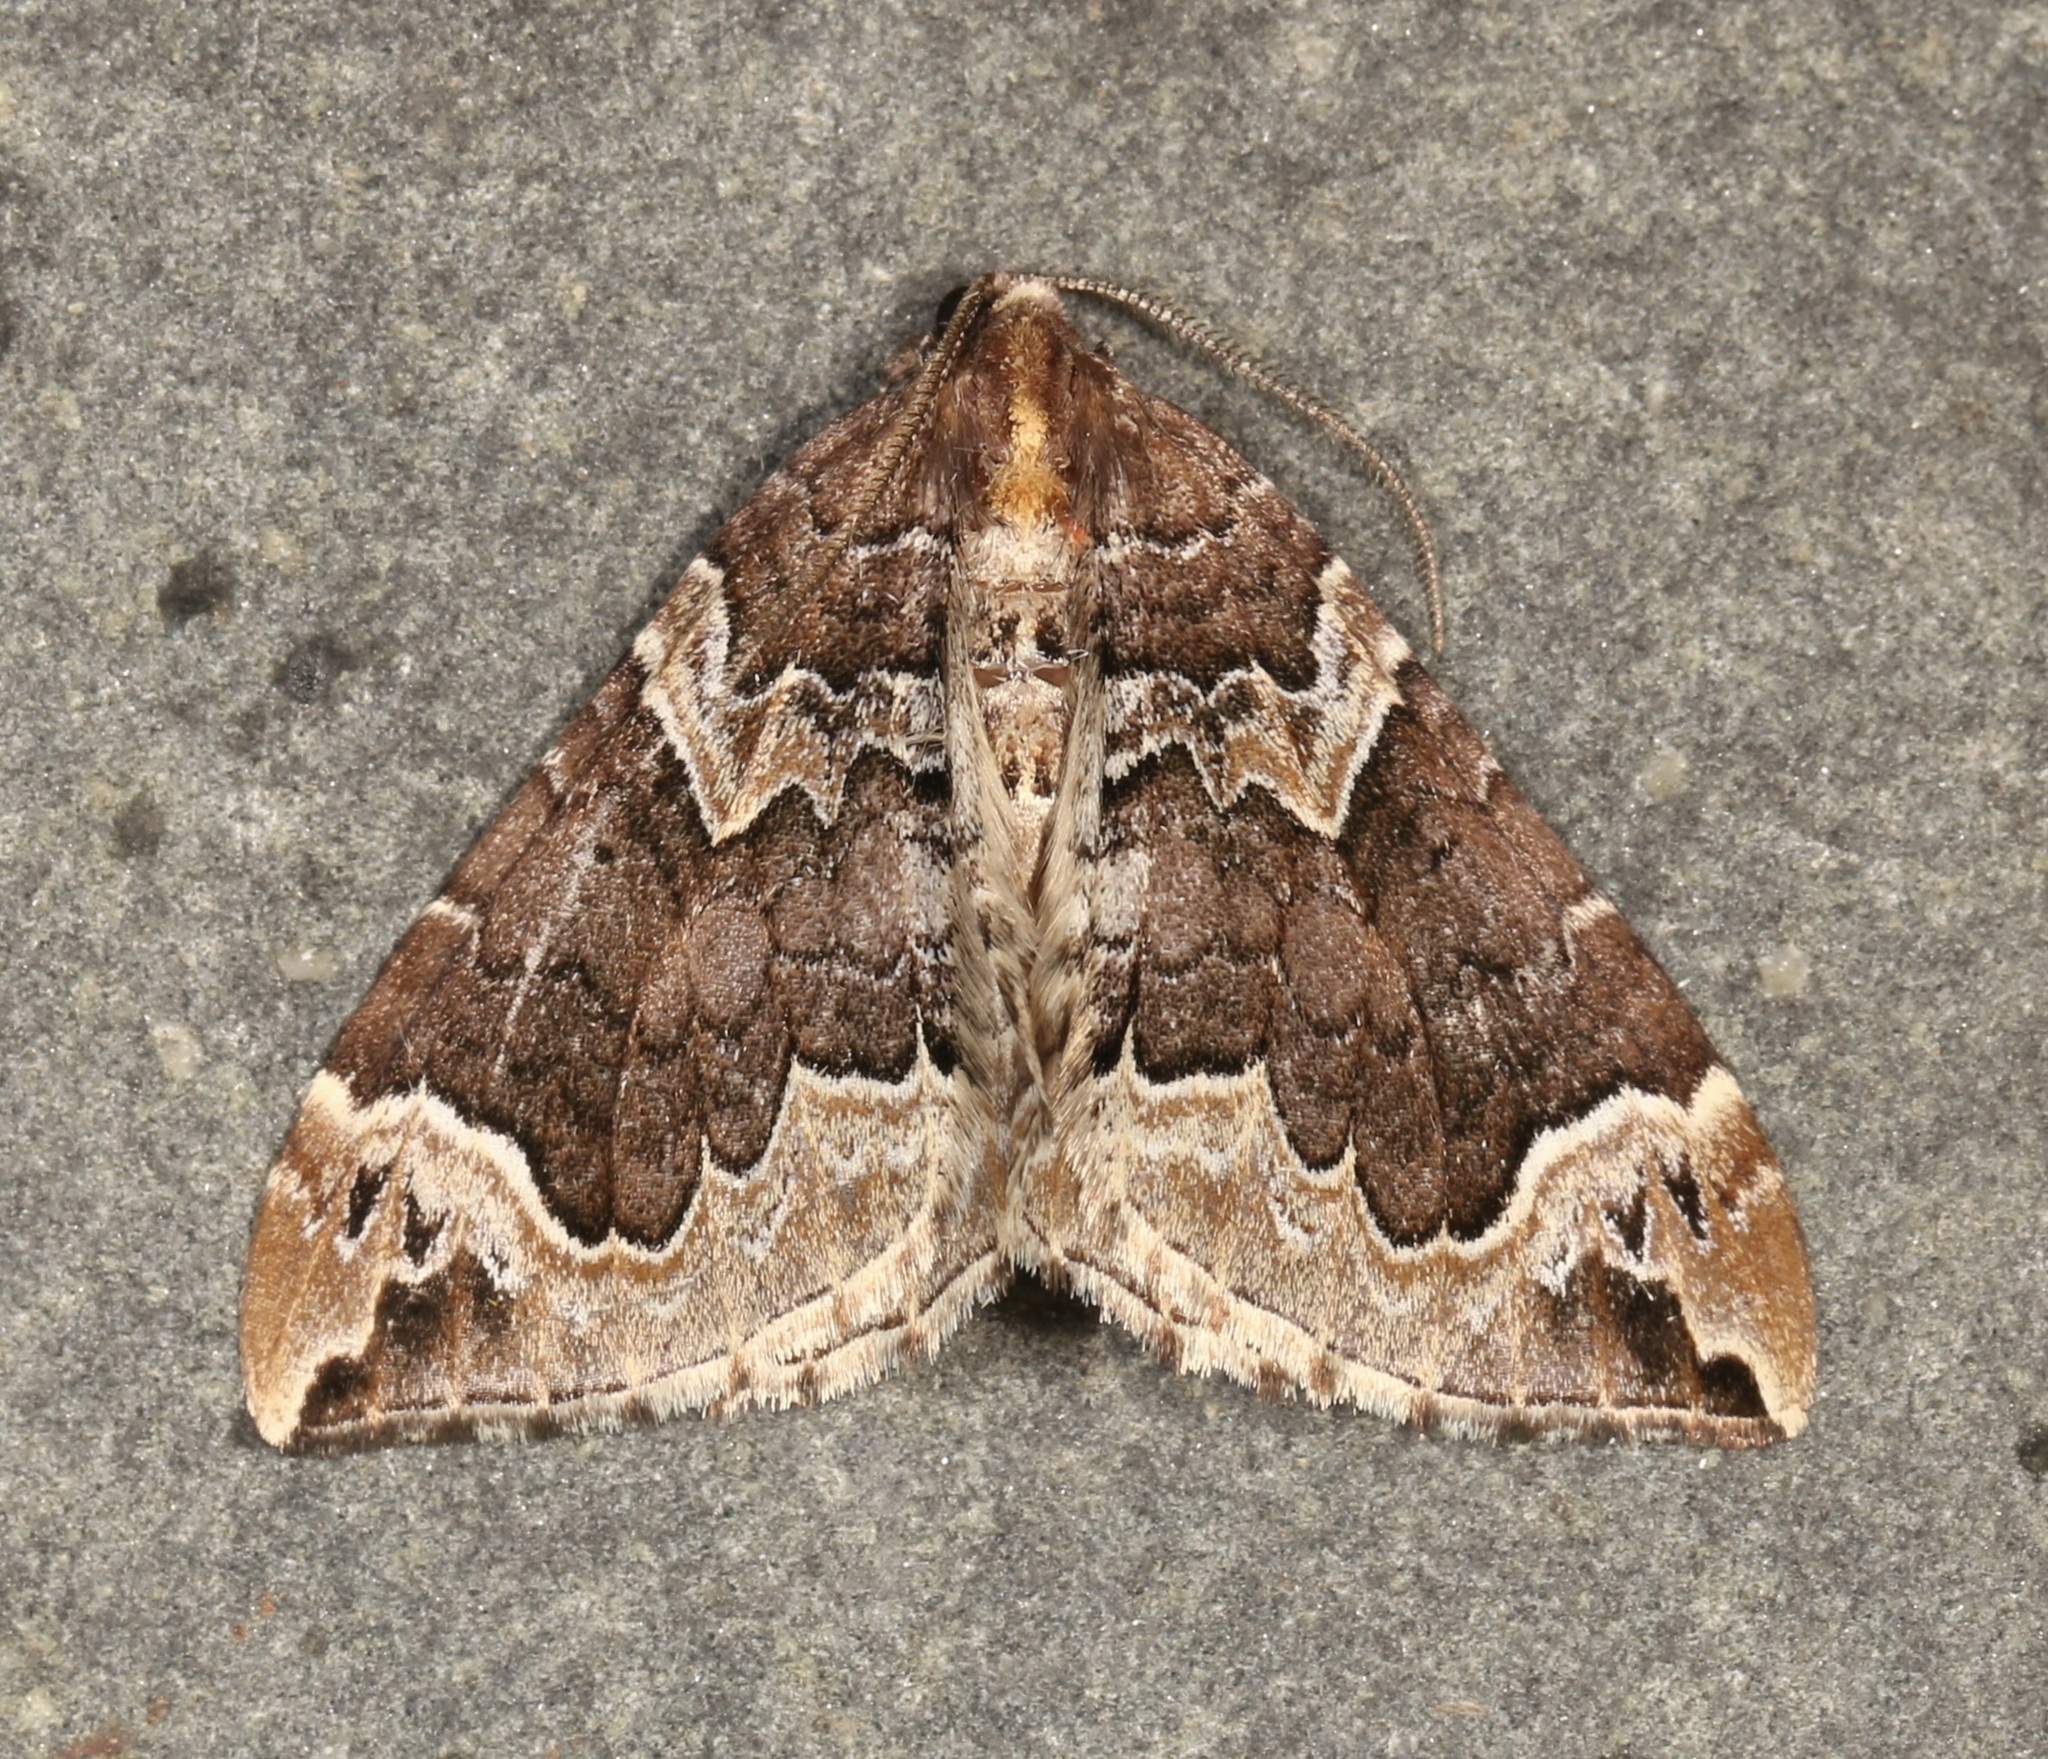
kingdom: Animalia
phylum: Arthropoda
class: Insecta
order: Lepidoptera
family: Geometridae
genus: Eulithis
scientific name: Eulithis xylina
